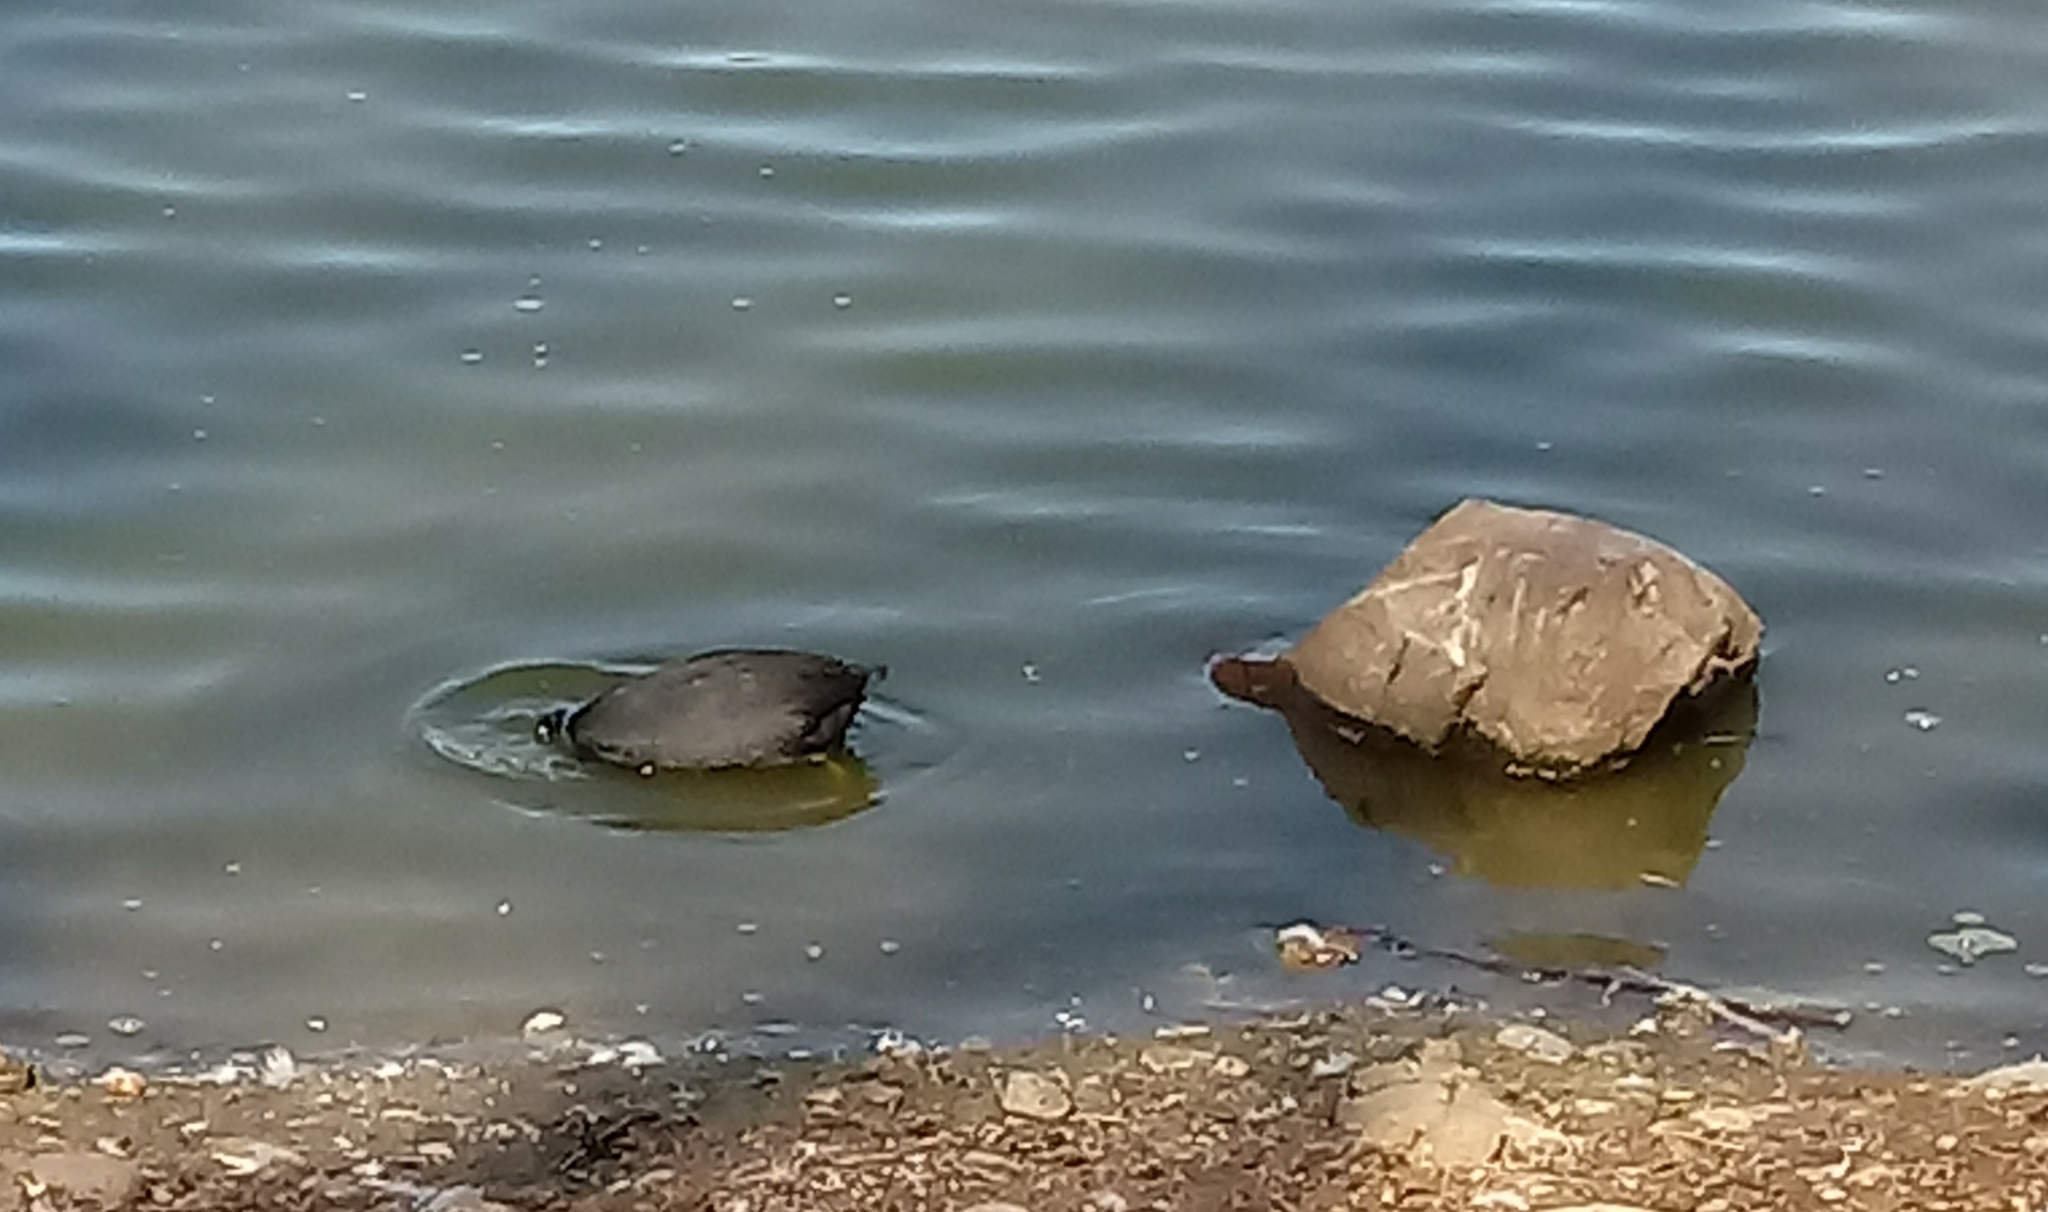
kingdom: Animalia
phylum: Chordata
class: Aves
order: Gruiformes
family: Rallidae
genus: Fulica
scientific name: Fulica americana
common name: American coot
